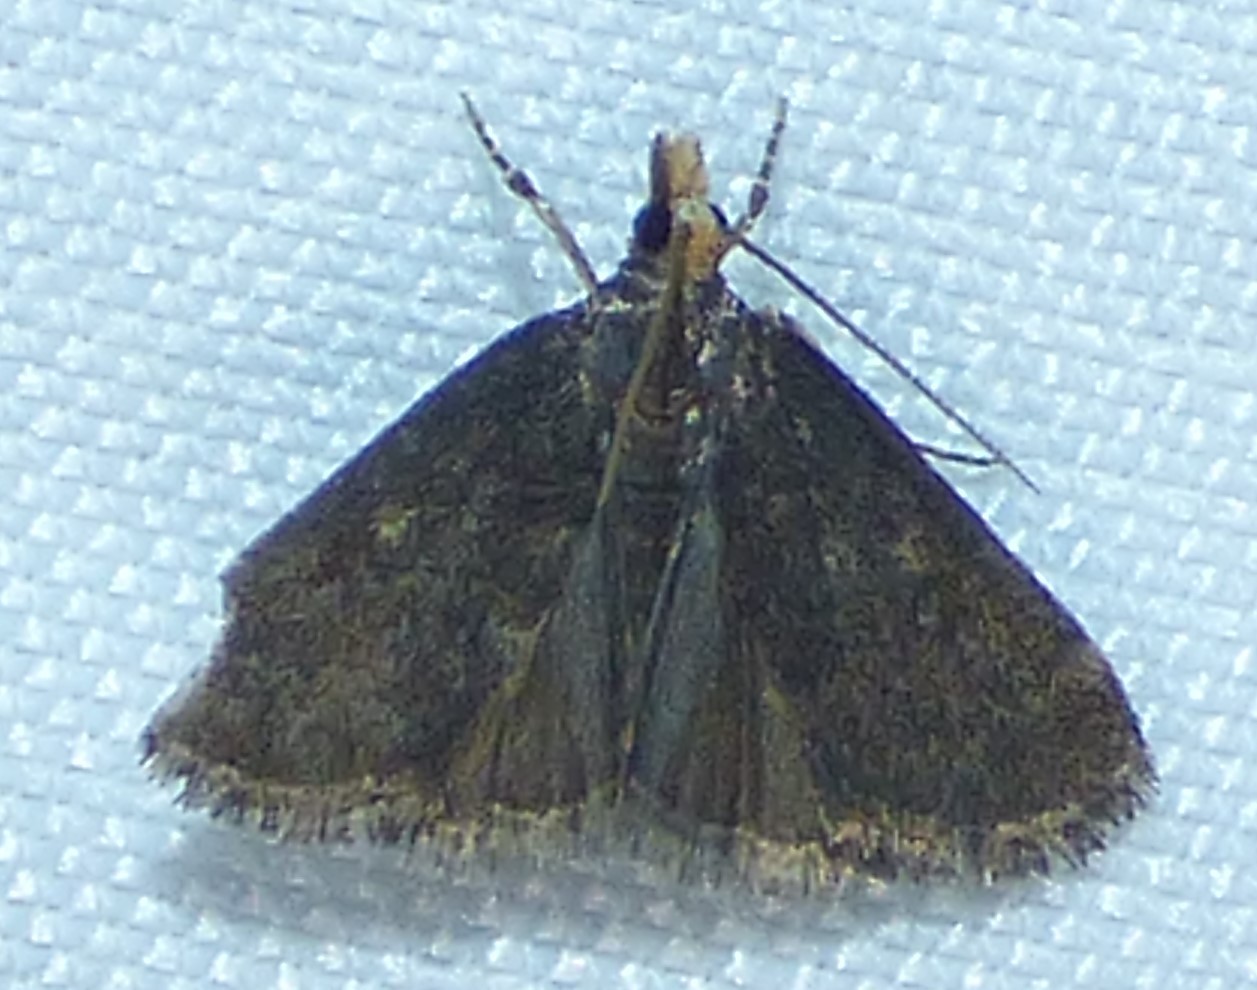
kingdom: Animalia
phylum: Arthropoda
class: Insecta
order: Lepidoptera
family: Crambidae
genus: Pyrausta
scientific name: Pyrausta merrickalis
